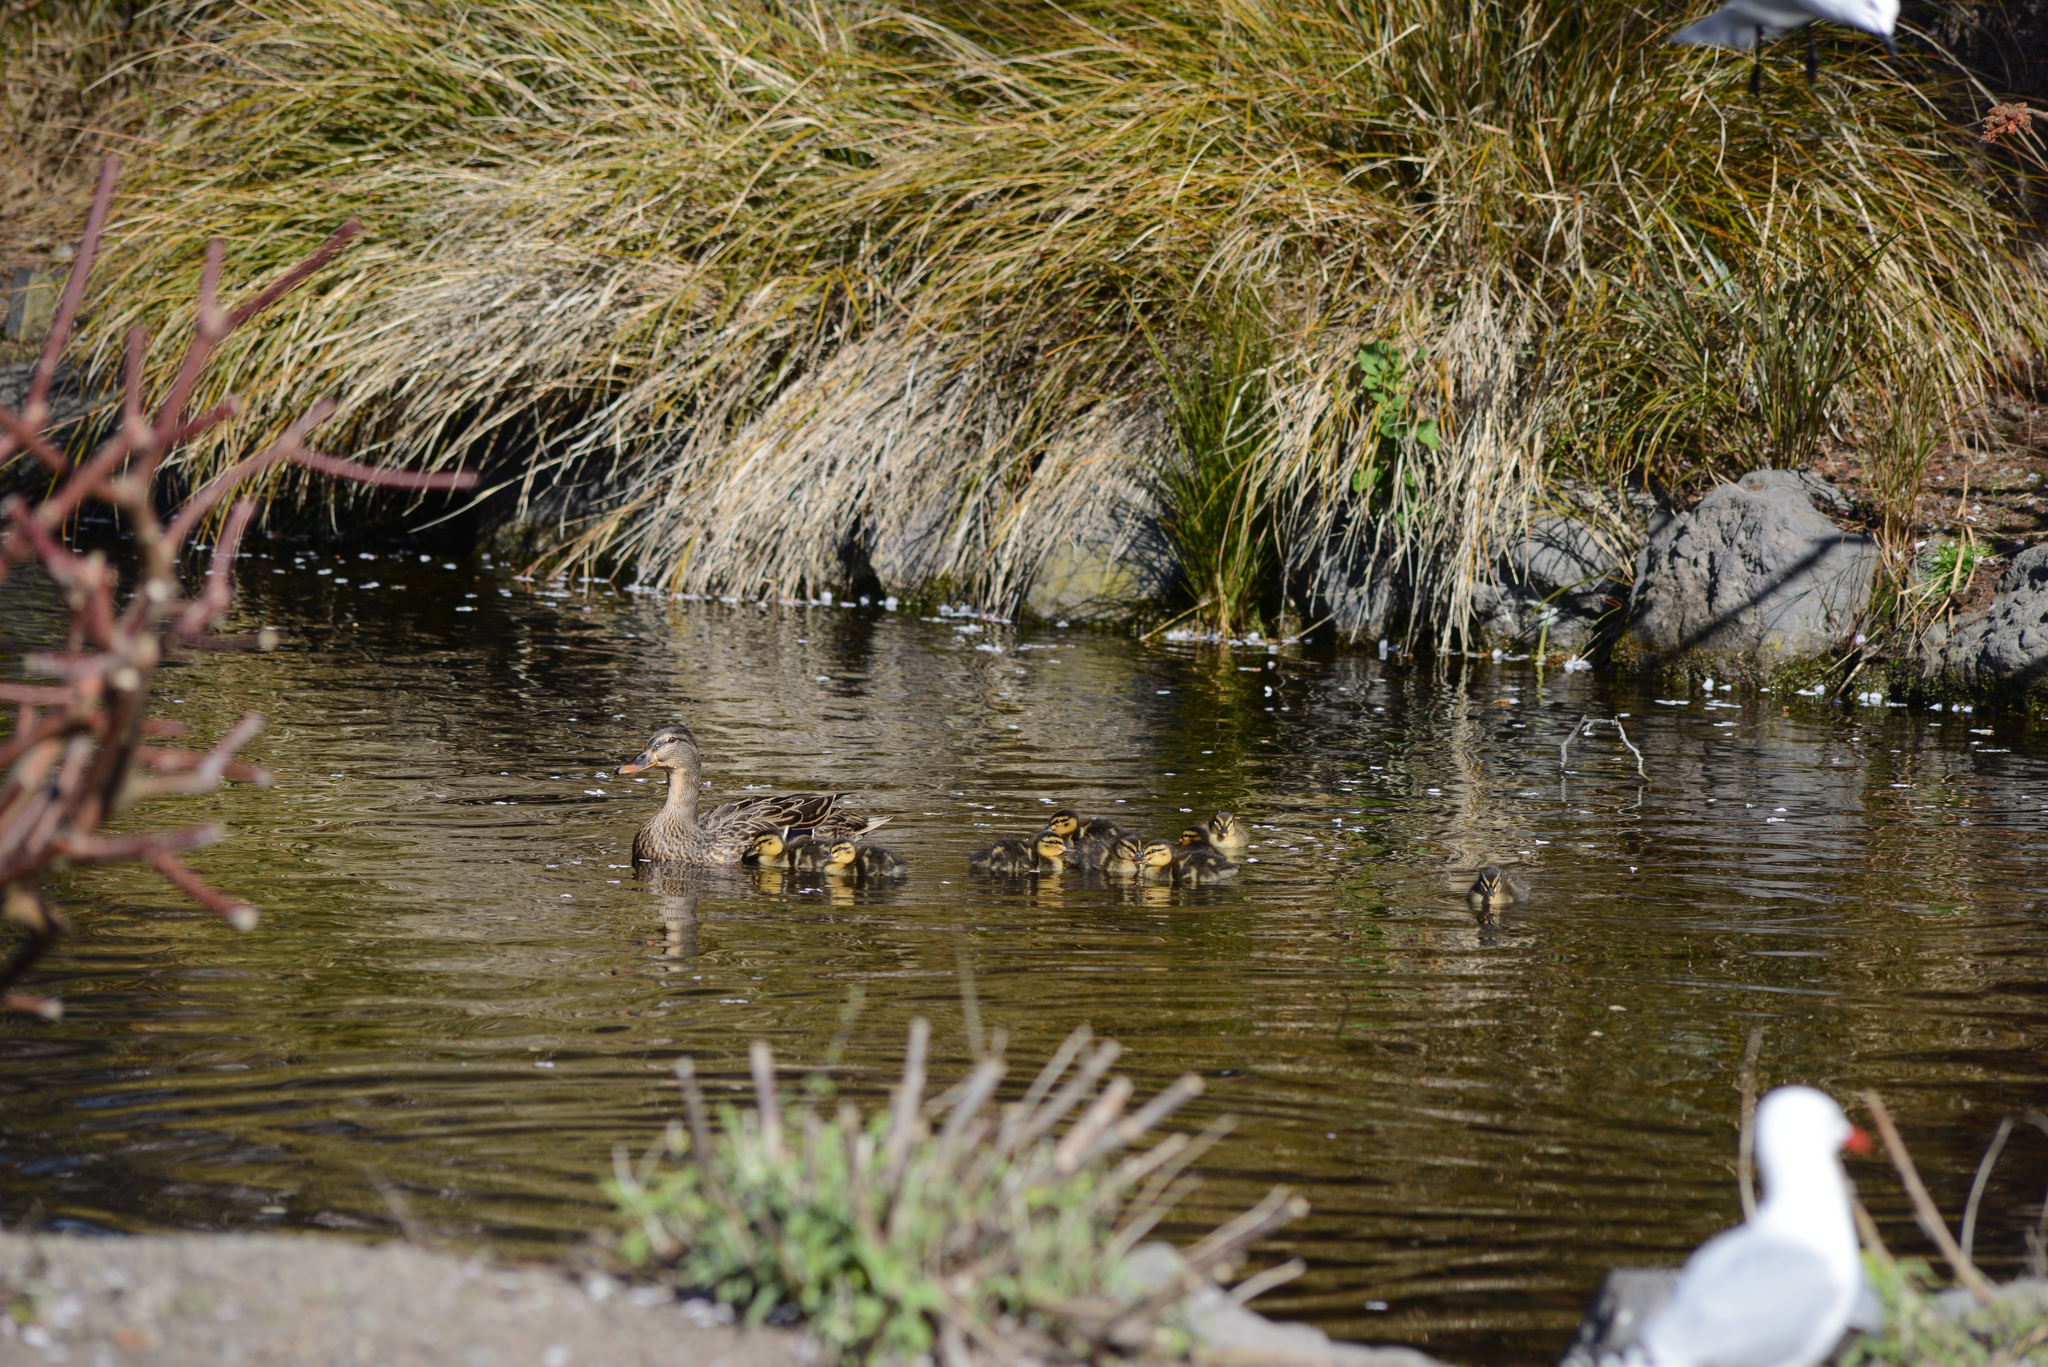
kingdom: Animalia
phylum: Chordata
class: Aves
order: Anseriformes
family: Anatidae
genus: Anas
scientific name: Anas platyrhynchos
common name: Mallard
